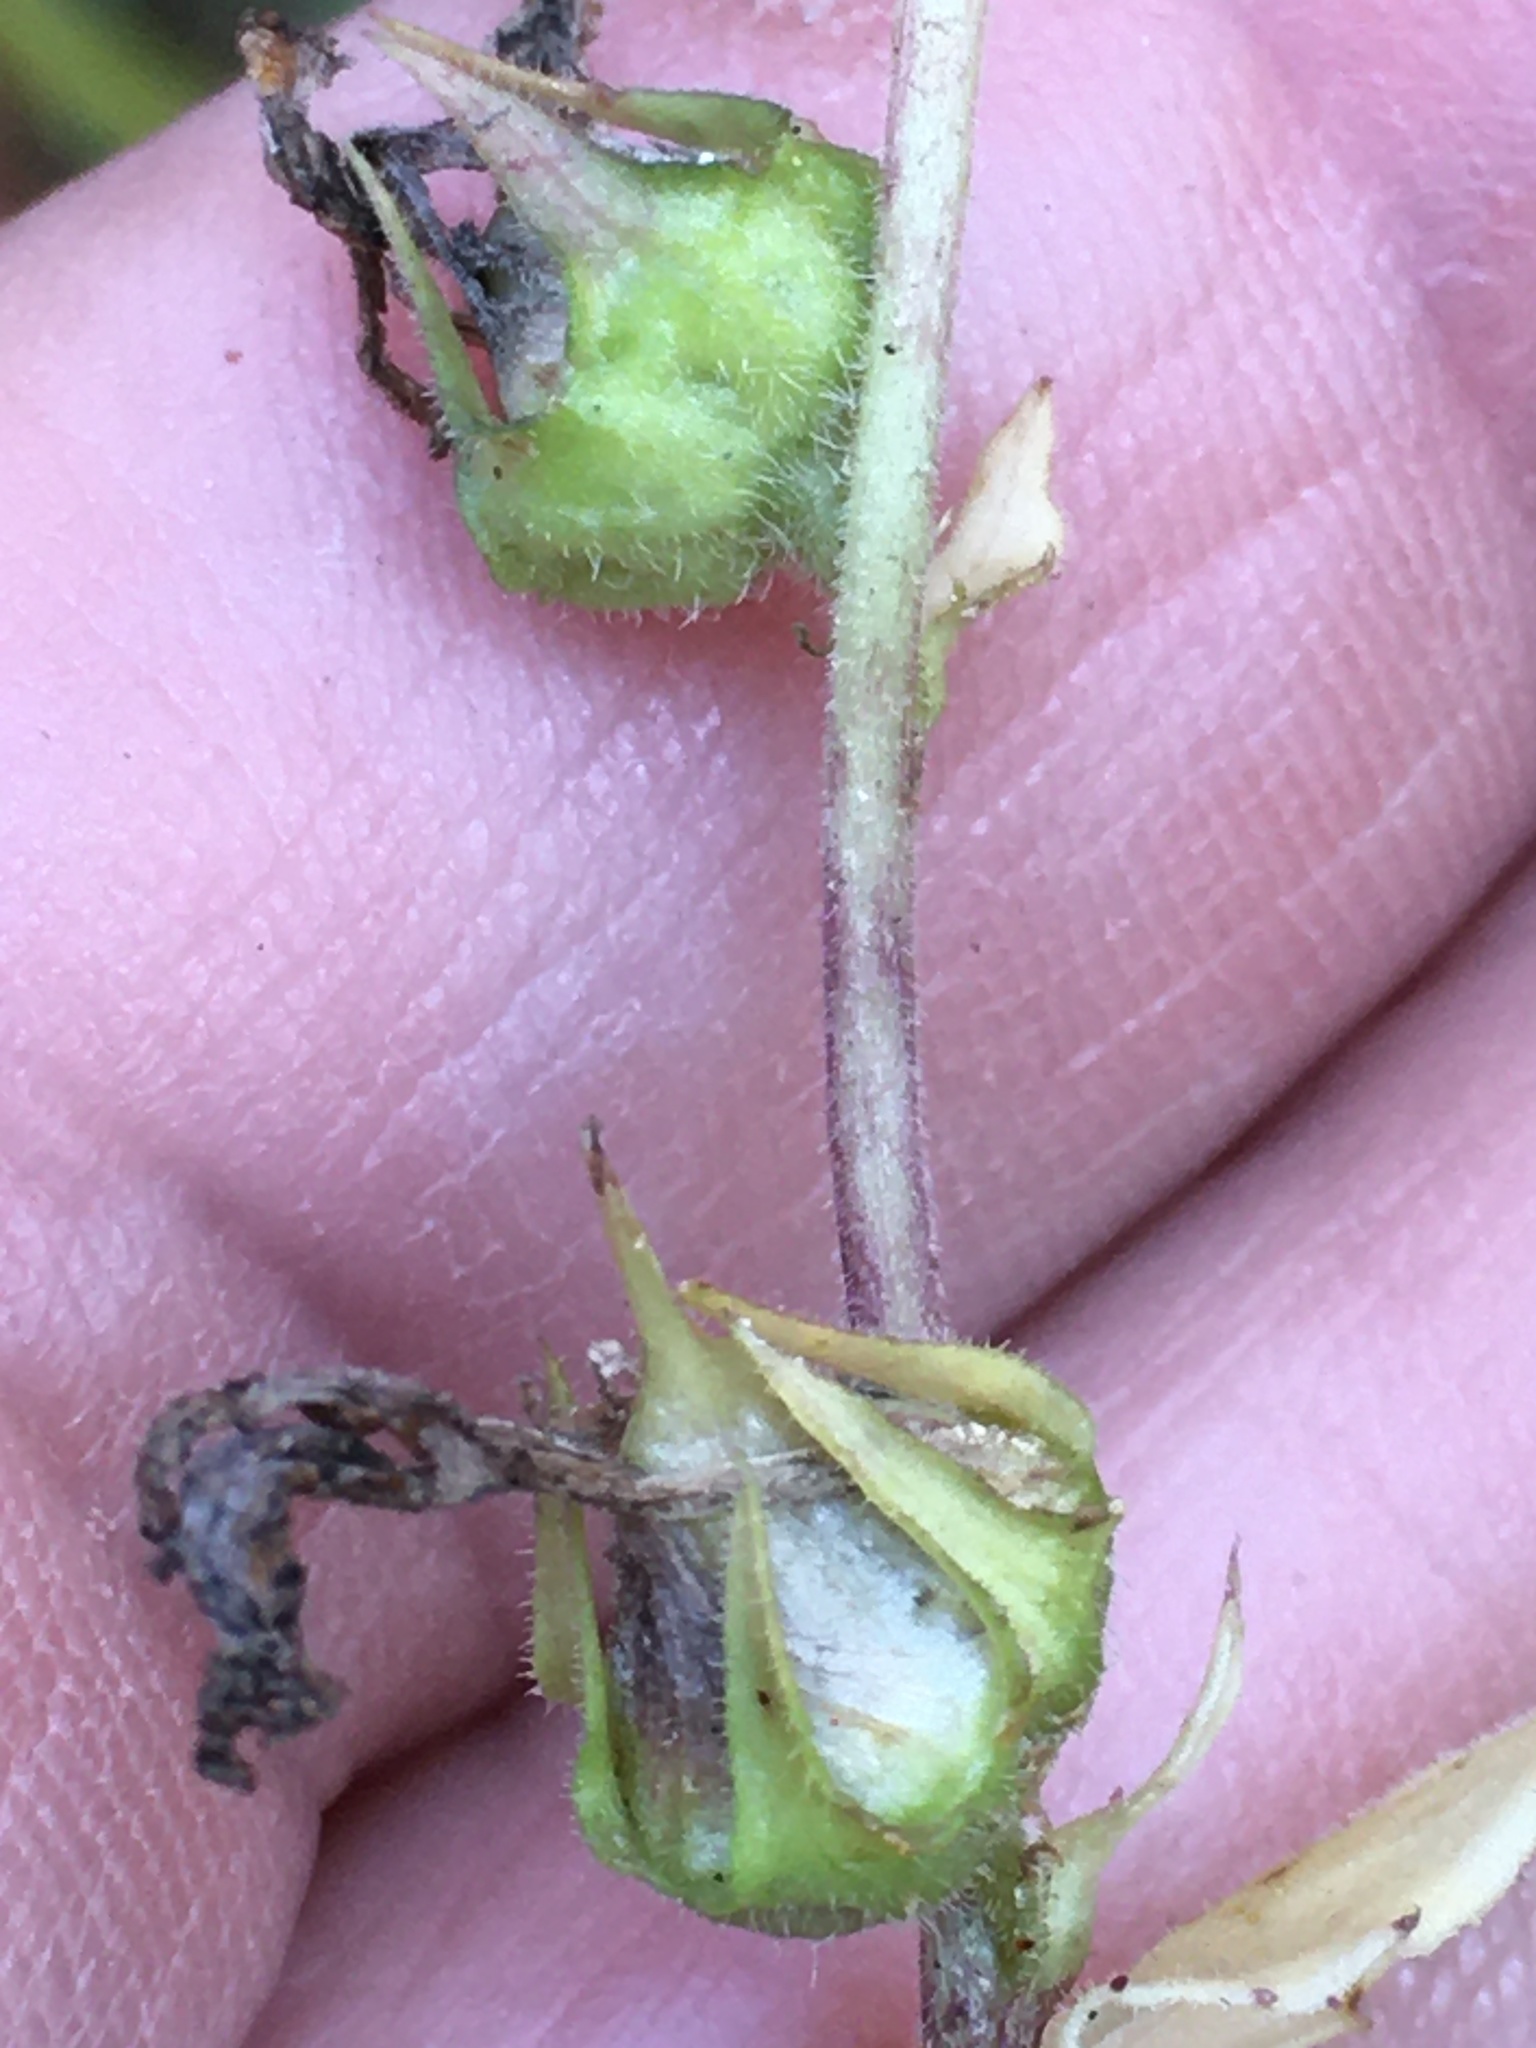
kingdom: Plantae
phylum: Tracheophyta
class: Magnoliopsida
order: Asterales
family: Campanulaceae
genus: Lobelia
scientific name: Lobelia puberula
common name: Purple dewdrop
